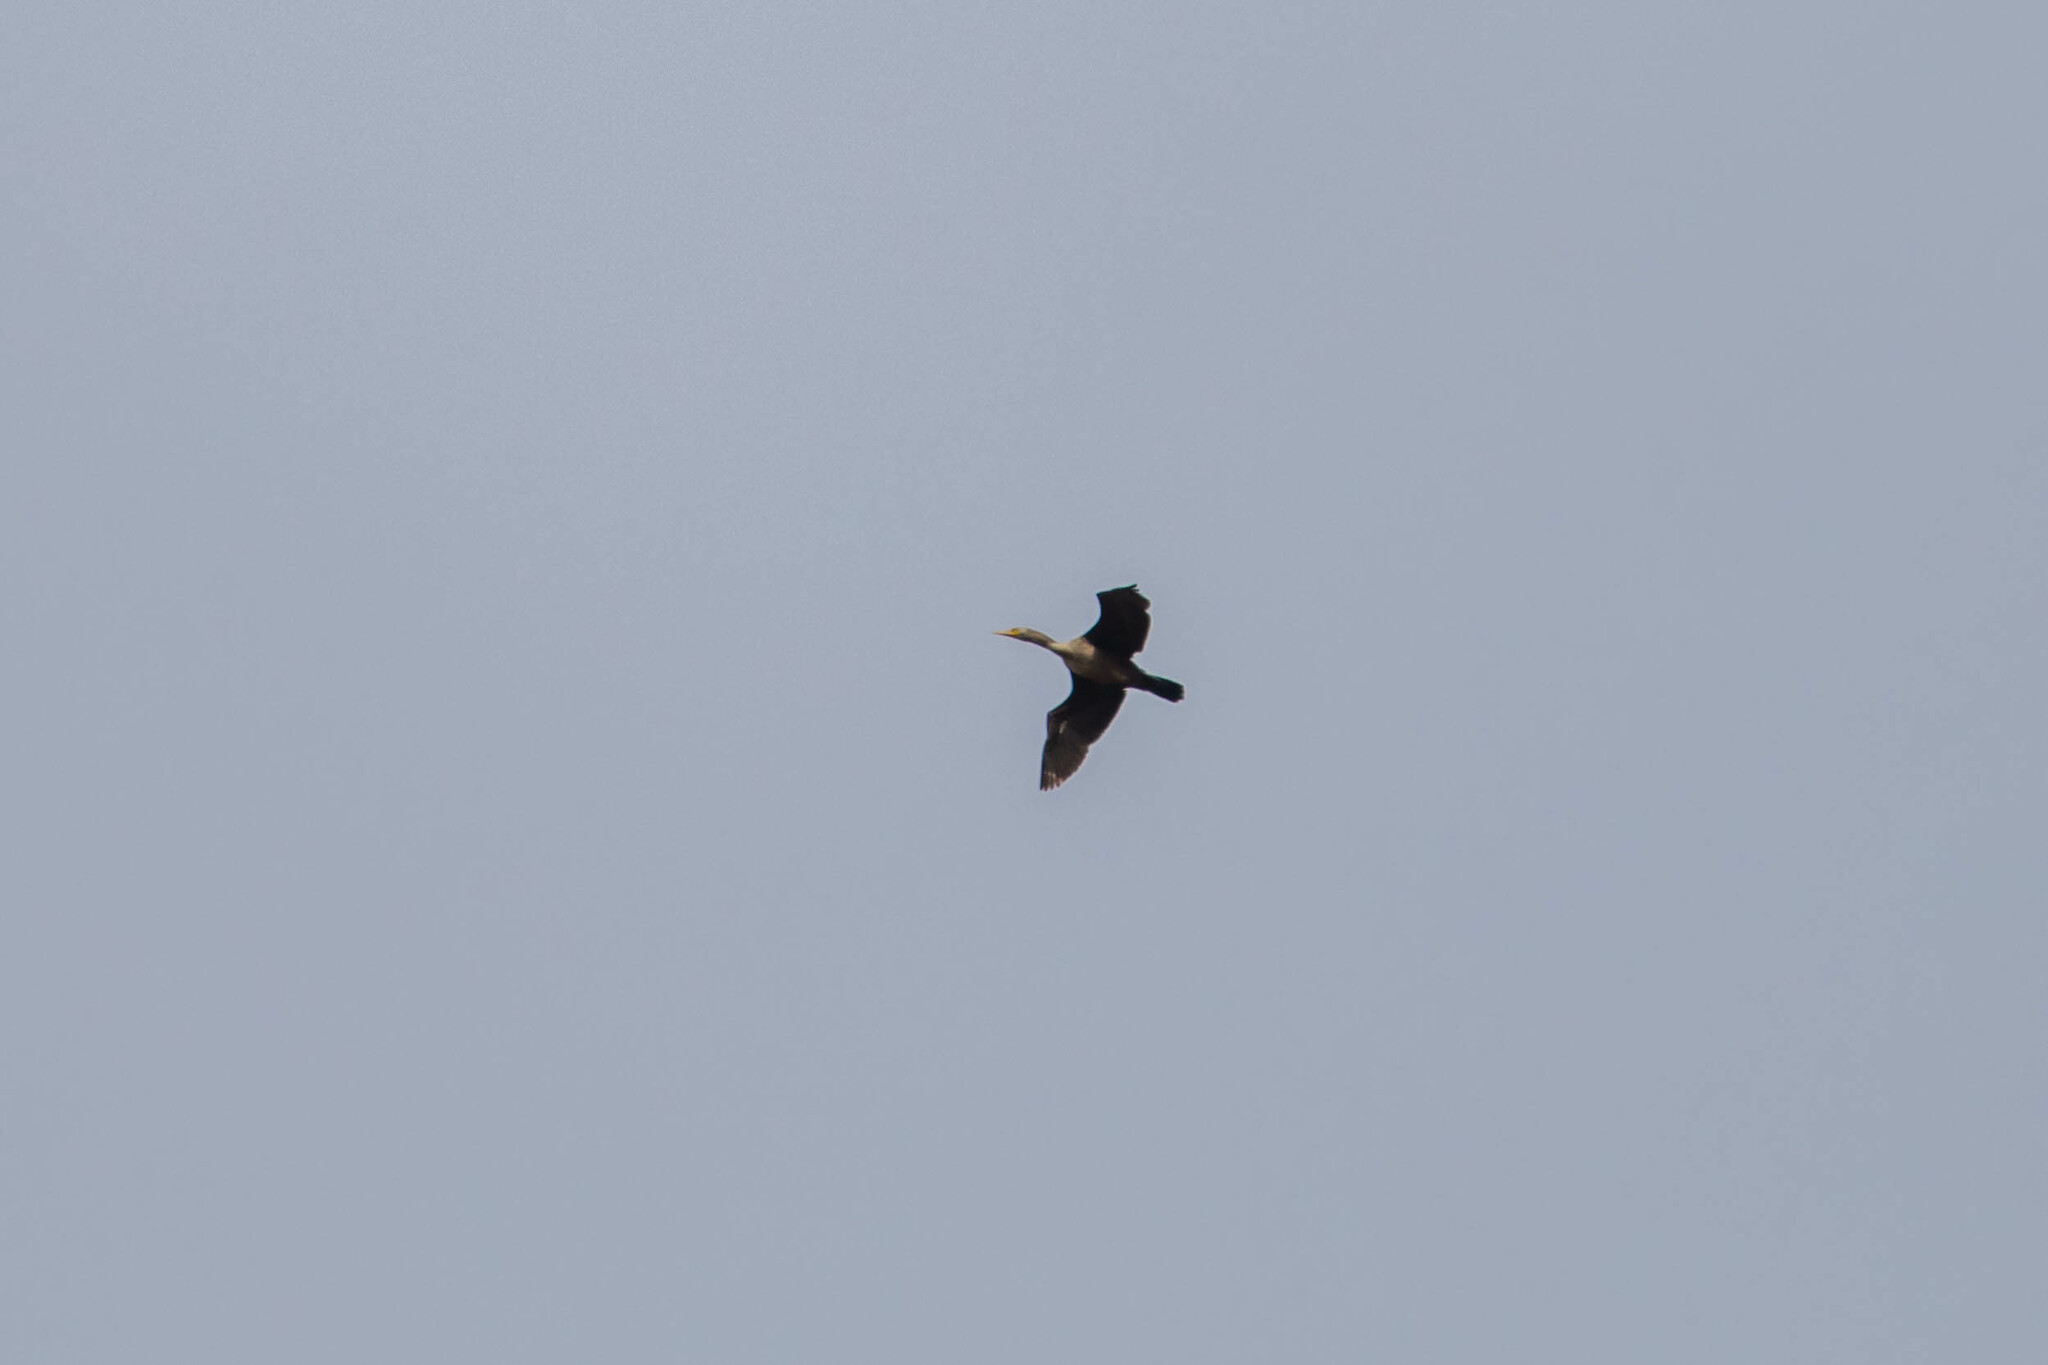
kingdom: Animalia
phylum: Chordata
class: Aves
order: Suliformes
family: Phalacrocoracidae
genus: Phalacrocorax
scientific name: Phalacrocorax auritus
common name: Double-crested cormorant
